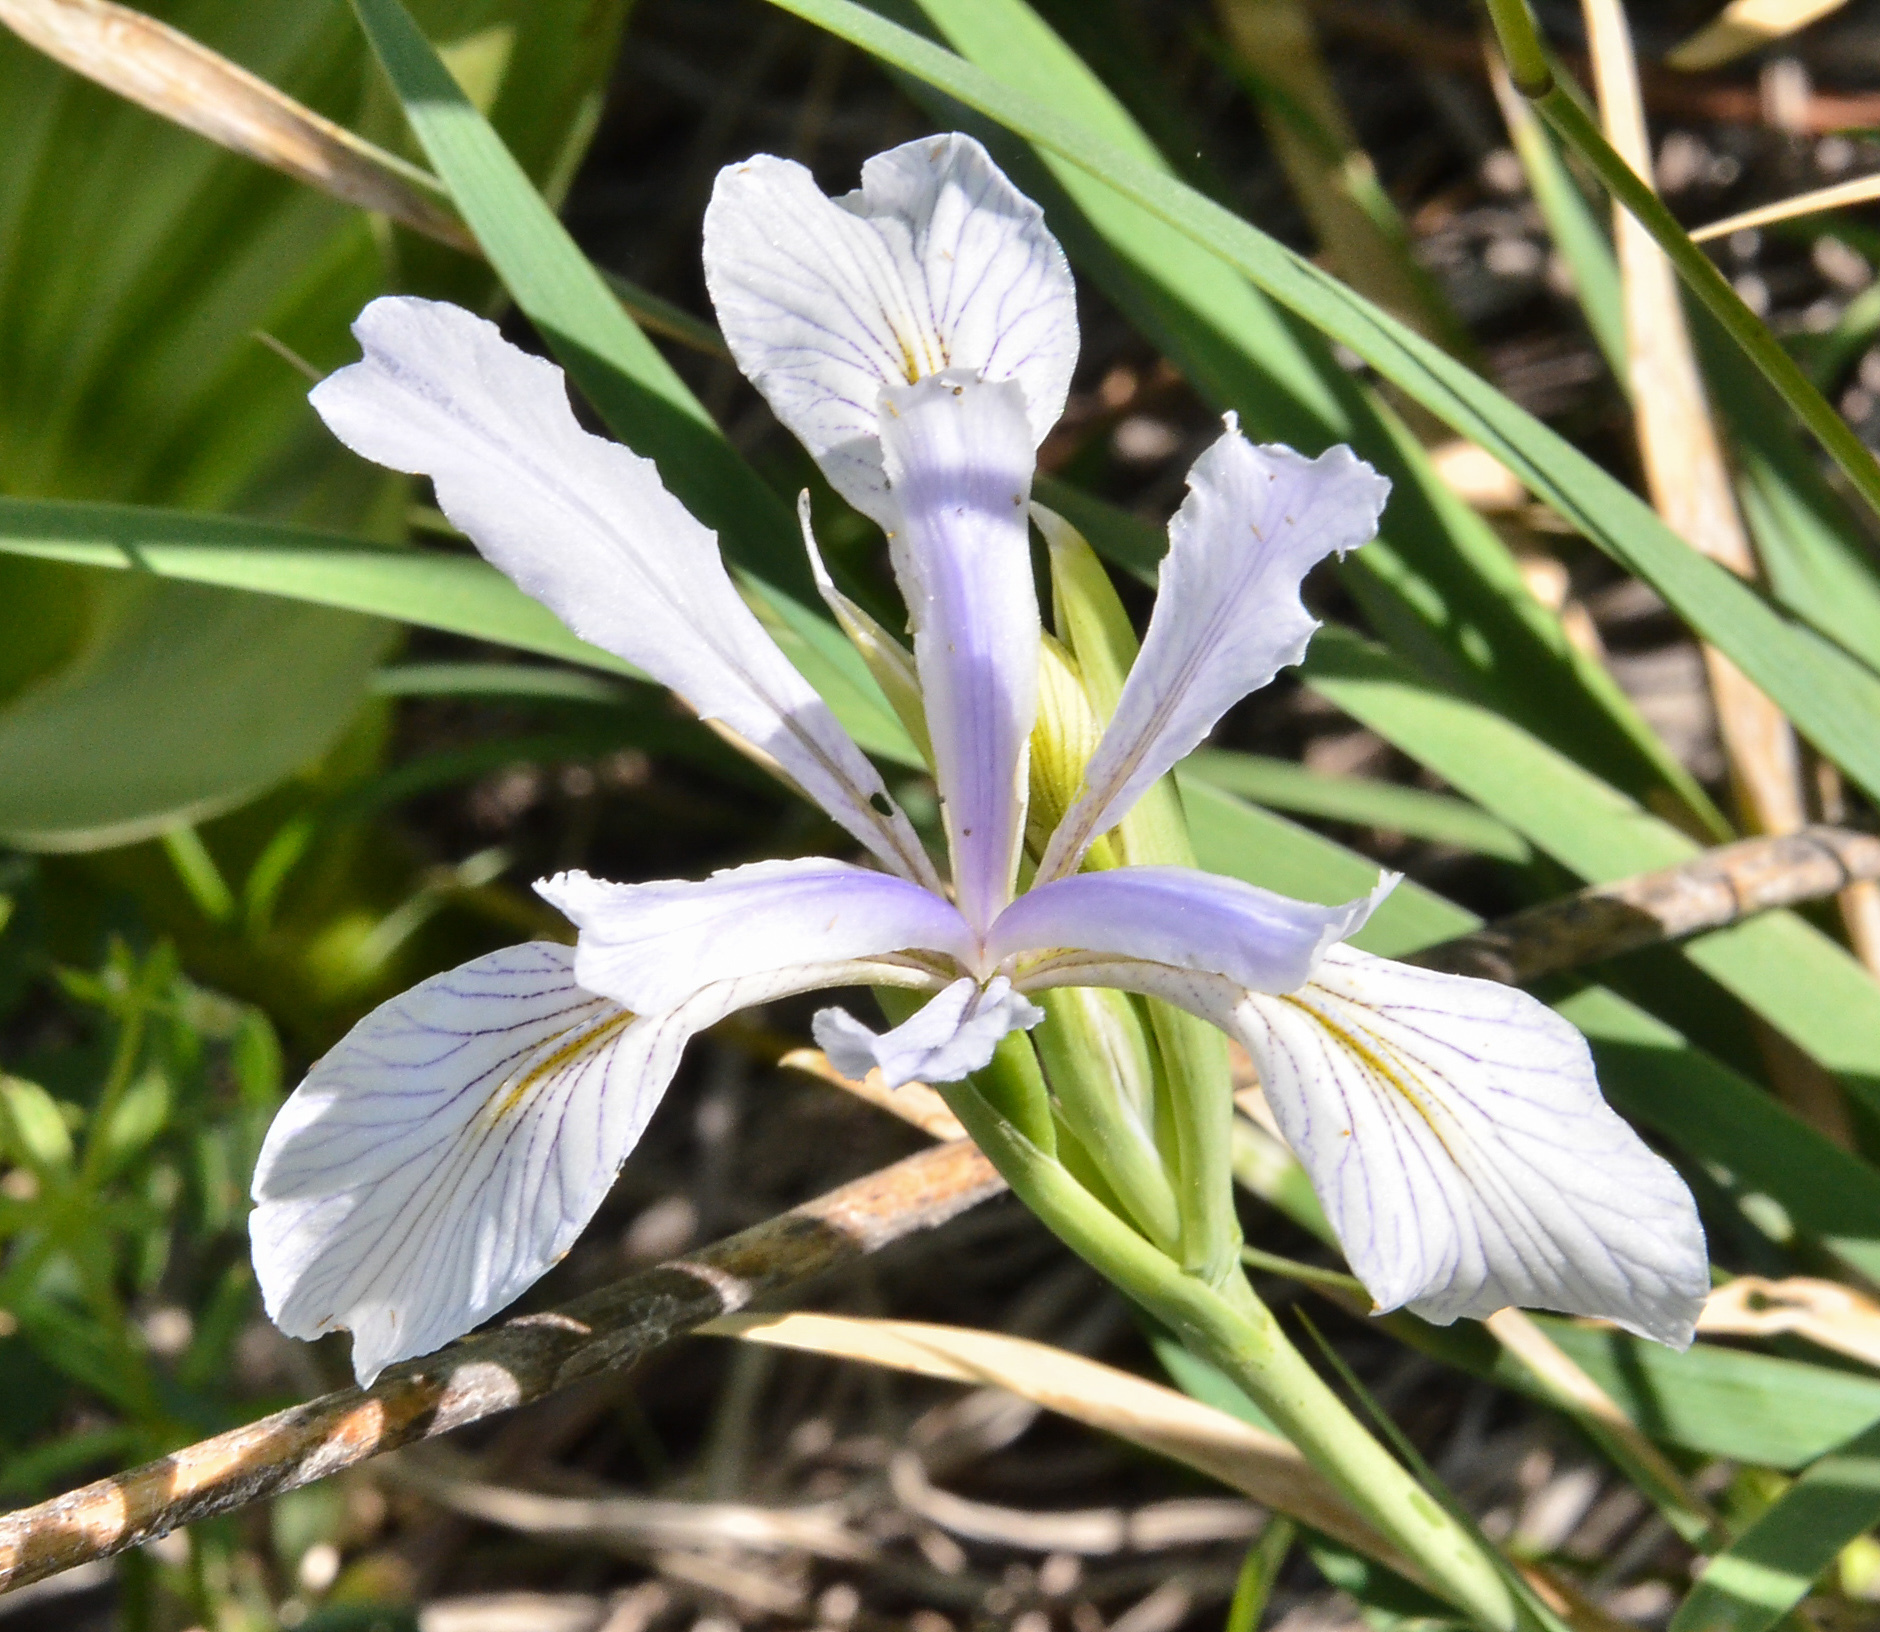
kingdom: Plantae
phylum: Tracheophyta
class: Liliopsida
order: Asparagales
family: Iridaceae
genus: Iris
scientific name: Iris missouriensis
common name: Rocky mountain iris
